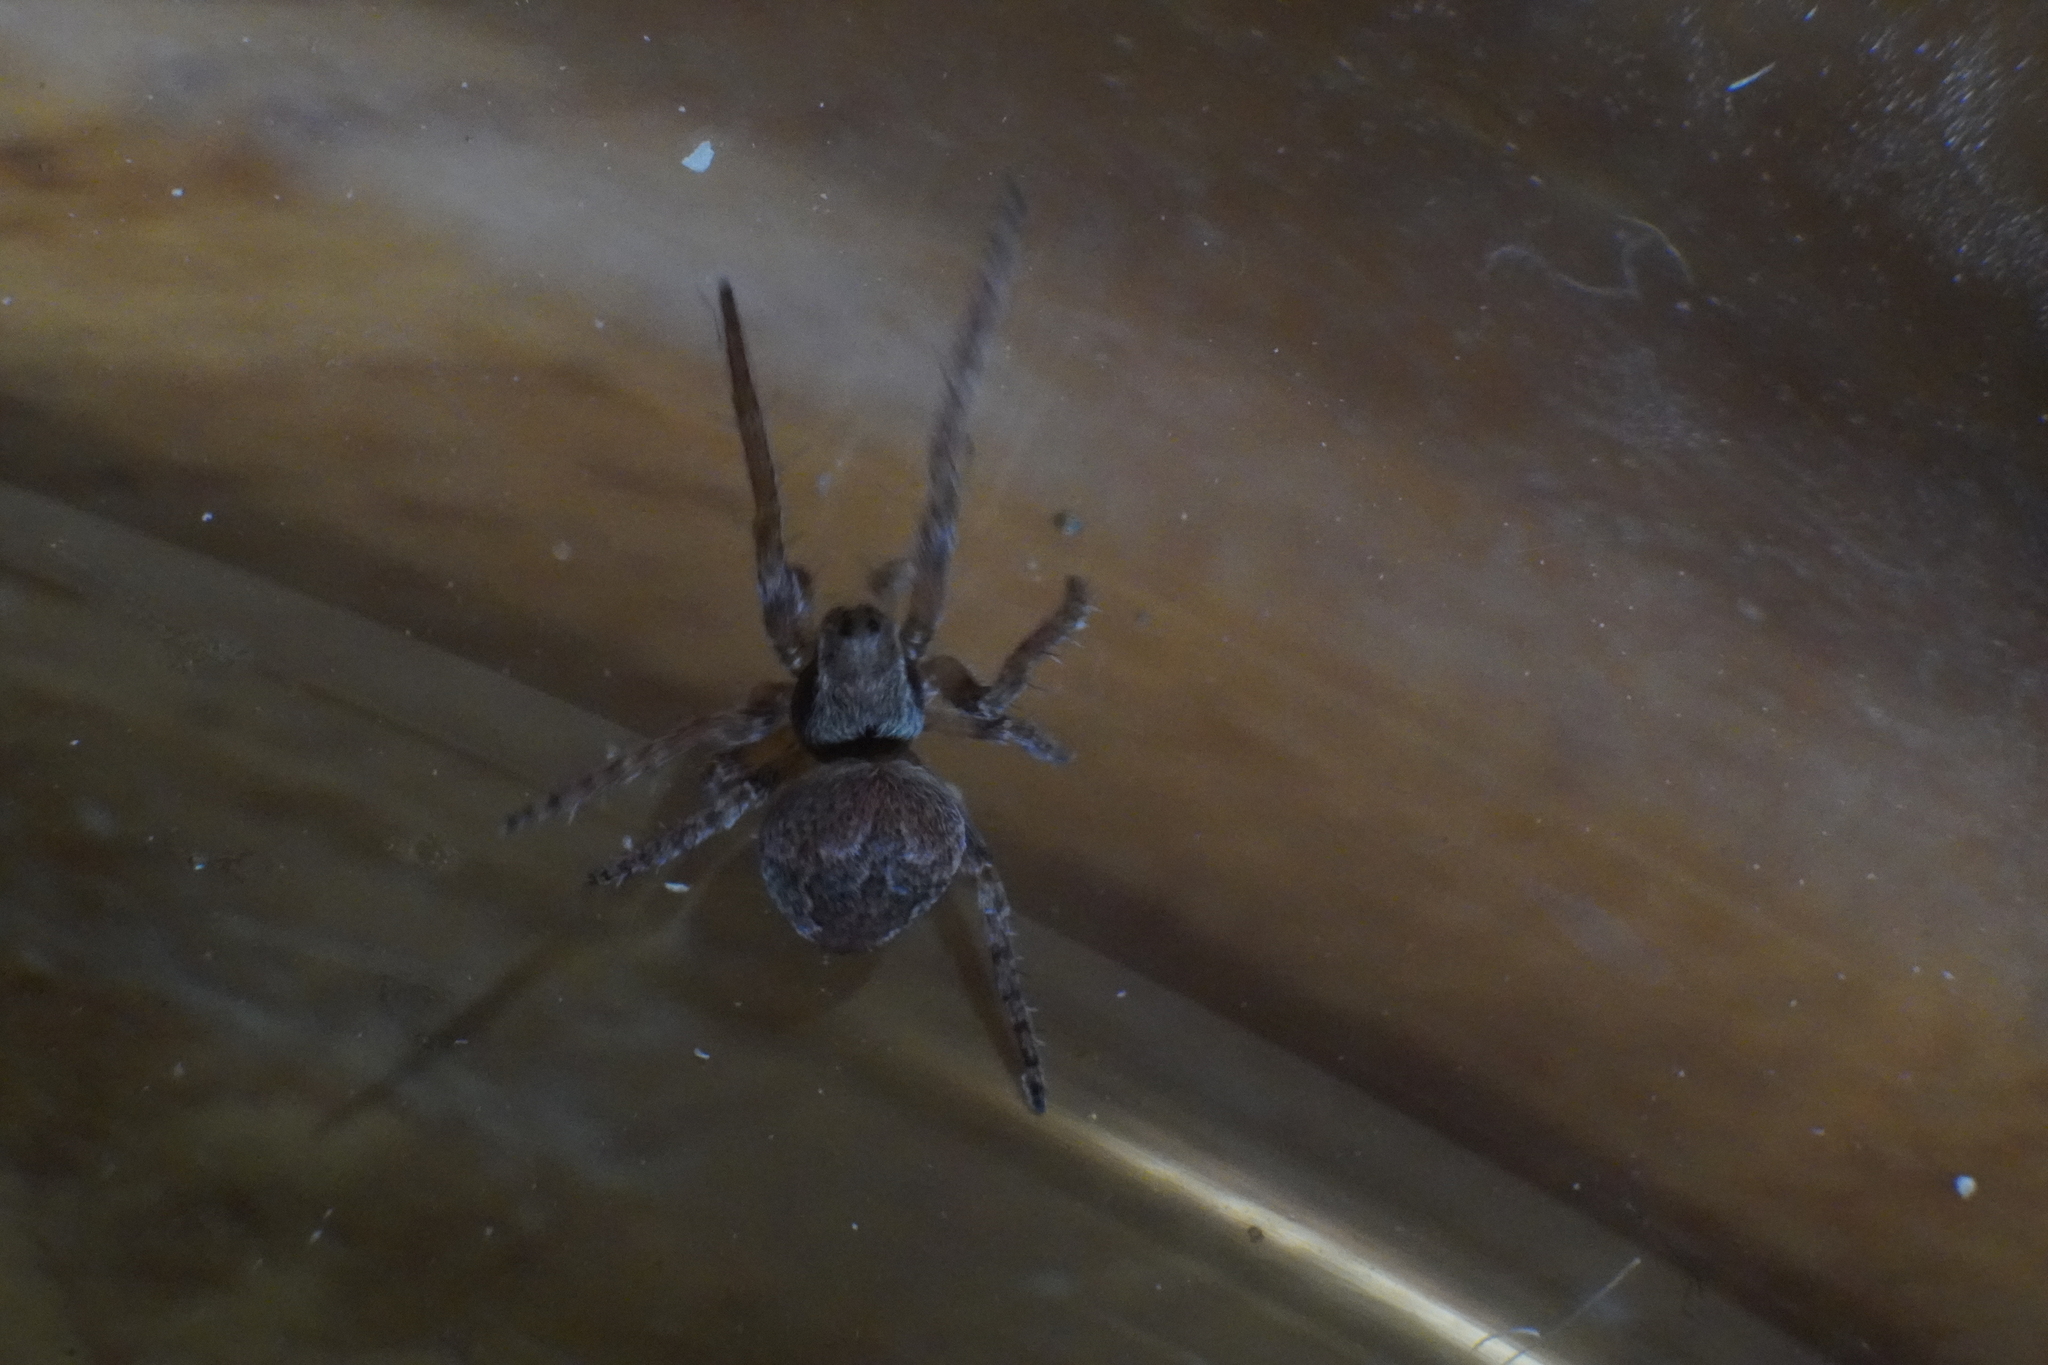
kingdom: Animalia
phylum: Arthropoda
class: Arachnida
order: Araneae
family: Araneidae
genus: Eustala
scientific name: Eustala
